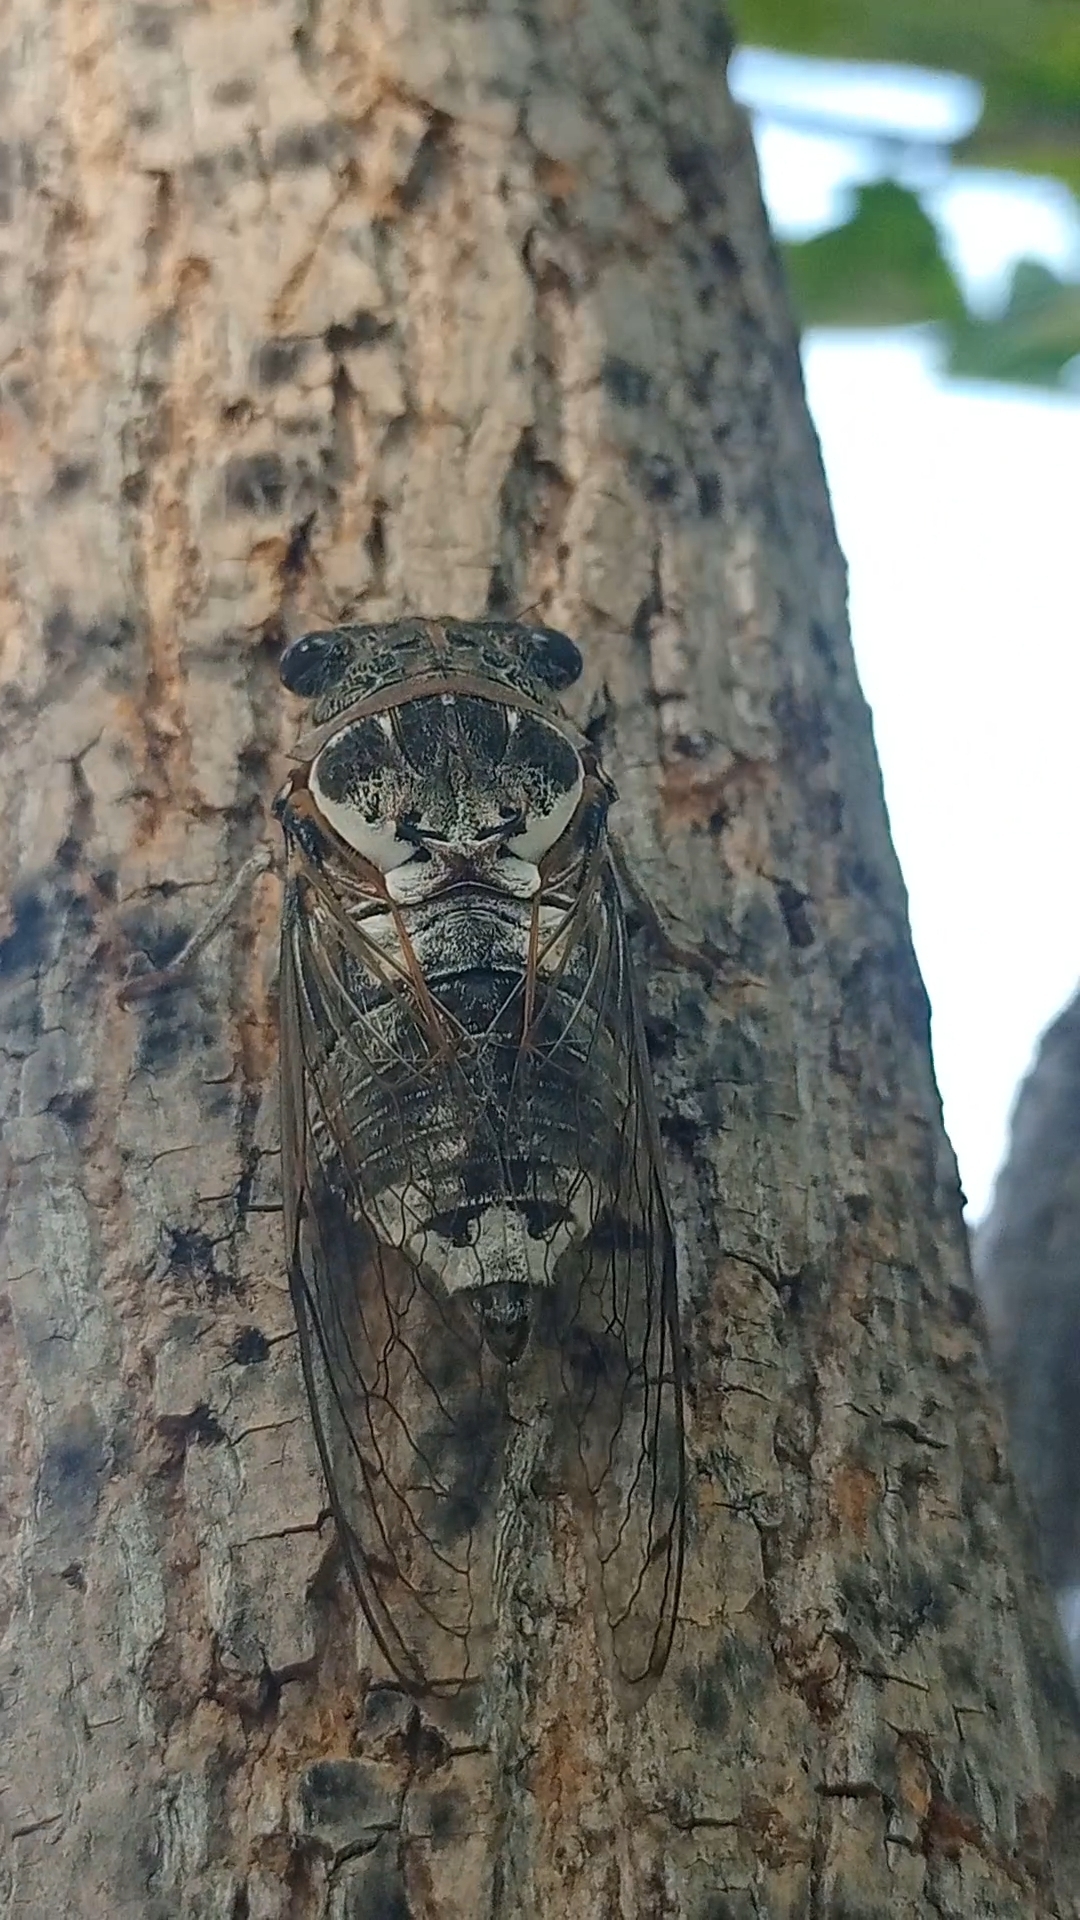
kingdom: Animalia
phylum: Arthropoda
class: Insecta
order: Hemiptera
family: Cicadidae
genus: Lyristes
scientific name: Lyristes gemellus
